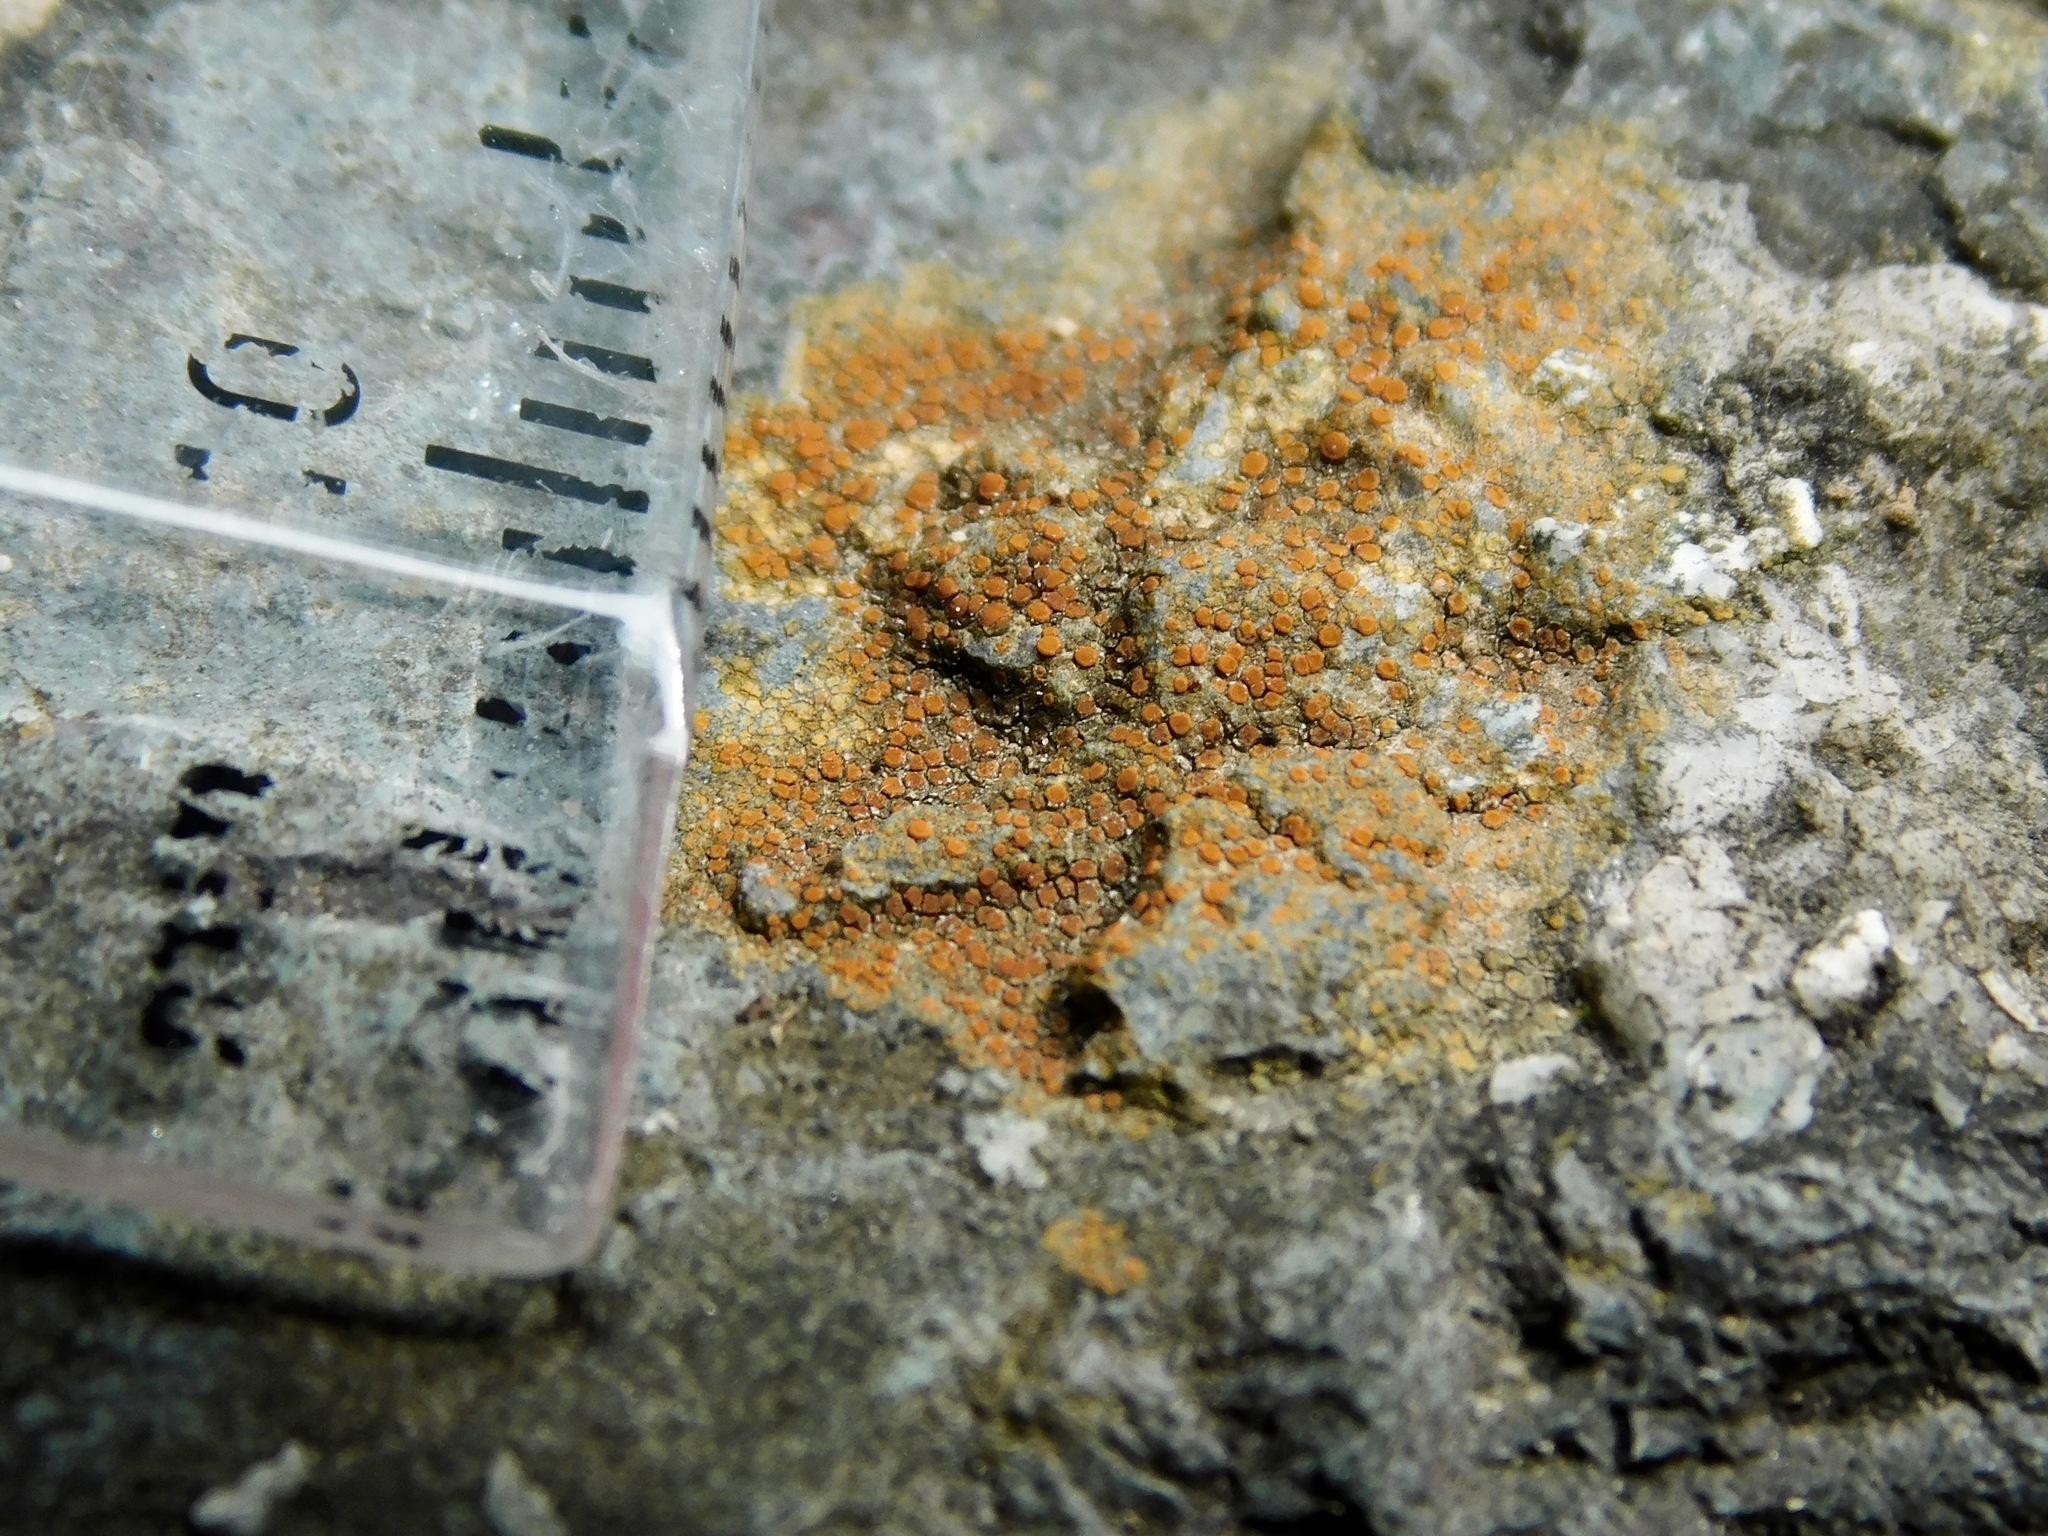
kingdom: Fungi
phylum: Ascomycota
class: Lecanoromycetes
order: Teloschistales
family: Teloschistaceae
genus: Gyalolechia
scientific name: Gyalolechia flavovirescens
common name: Sulphur firedot
